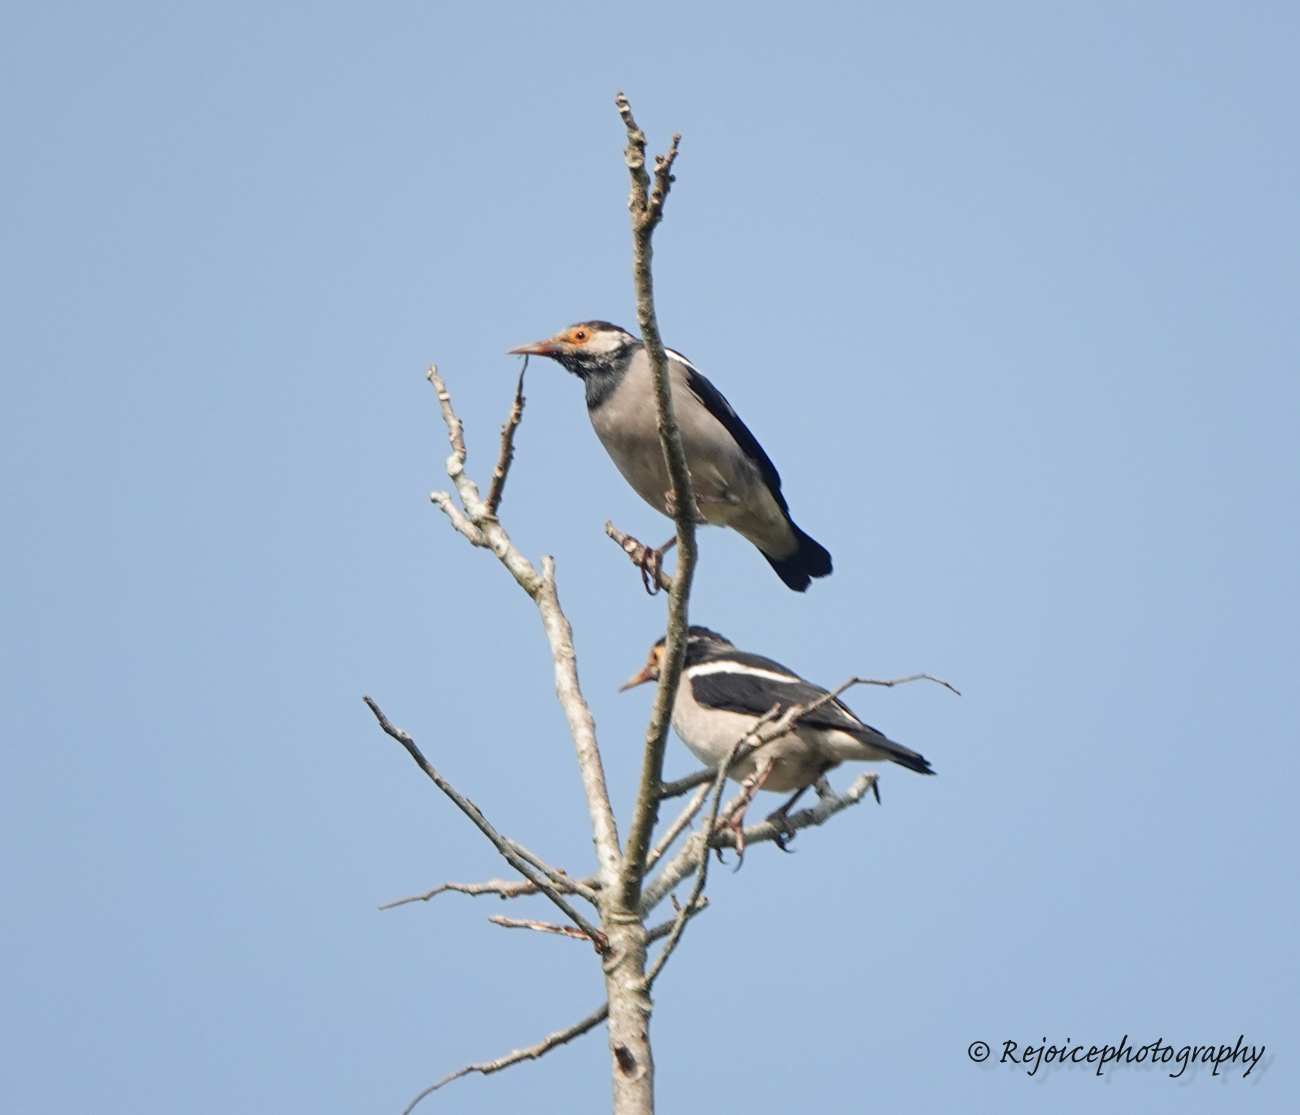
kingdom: Animalia
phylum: Chordata
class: Aves
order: Passeriformes
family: Sturnidae
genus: Gracupica
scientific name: Gracupica contra
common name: Pied myna
